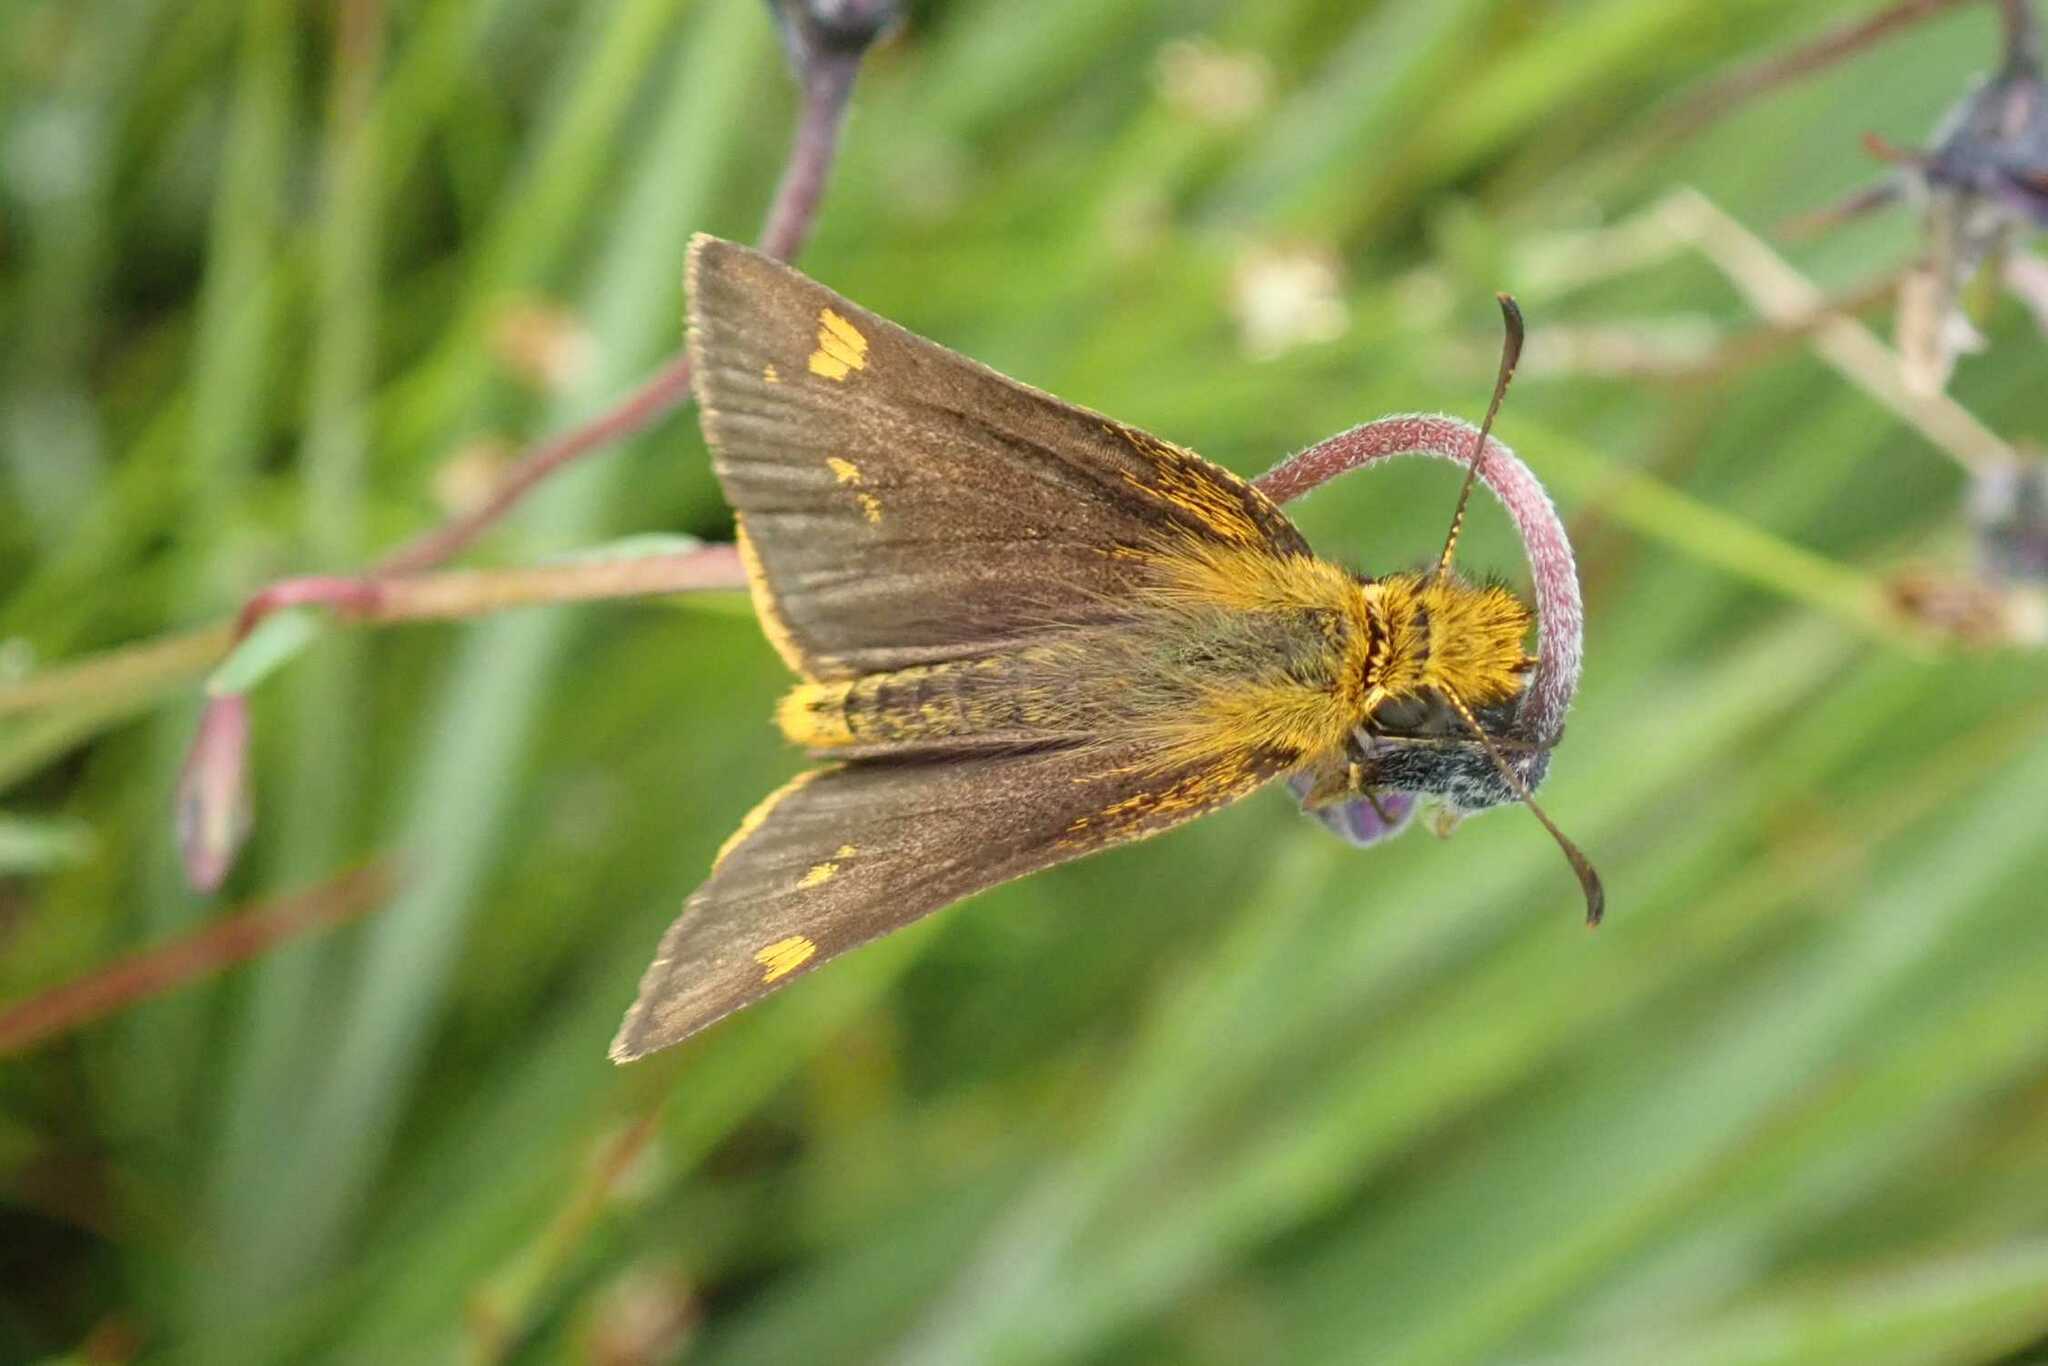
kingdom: Animalia
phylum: Arthropoda
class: Insecta
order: Lepidoptera
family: Hesperiidae
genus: Metisella
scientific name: Metisella aegipan
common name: Mountain sylph
